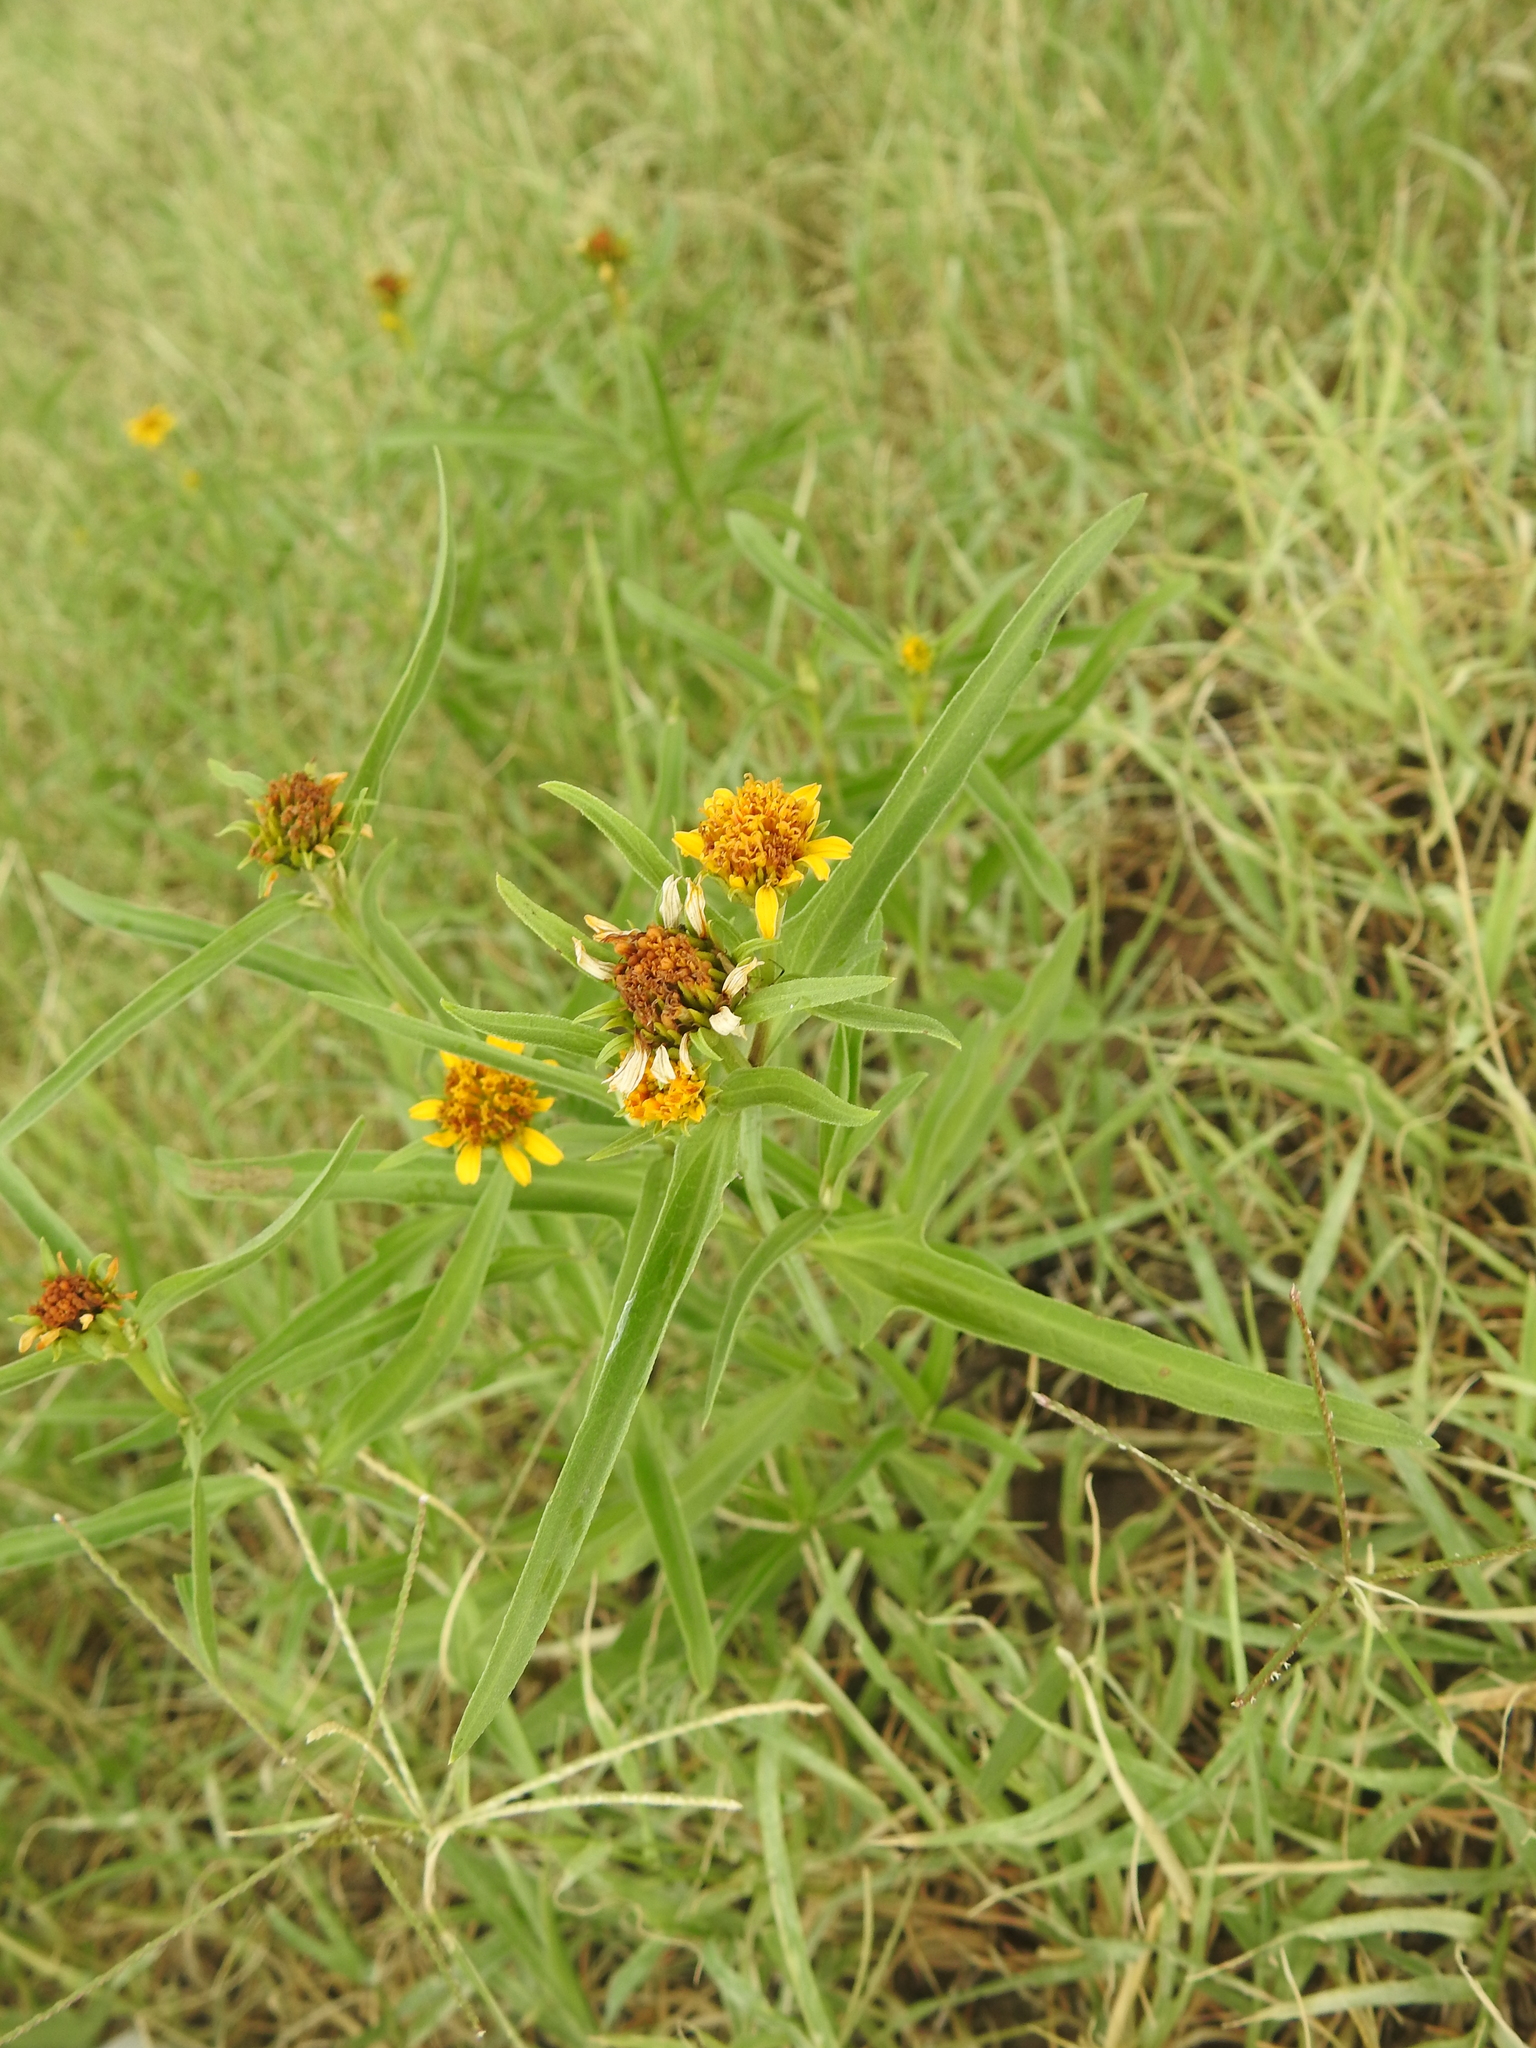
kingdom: Plantae
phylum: Tracheophyta
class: Magnoliopsida
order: Asterales
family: Asteraceae
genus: Pascalia
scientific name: Pascalia glauca
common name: Beach creeping oxeye
